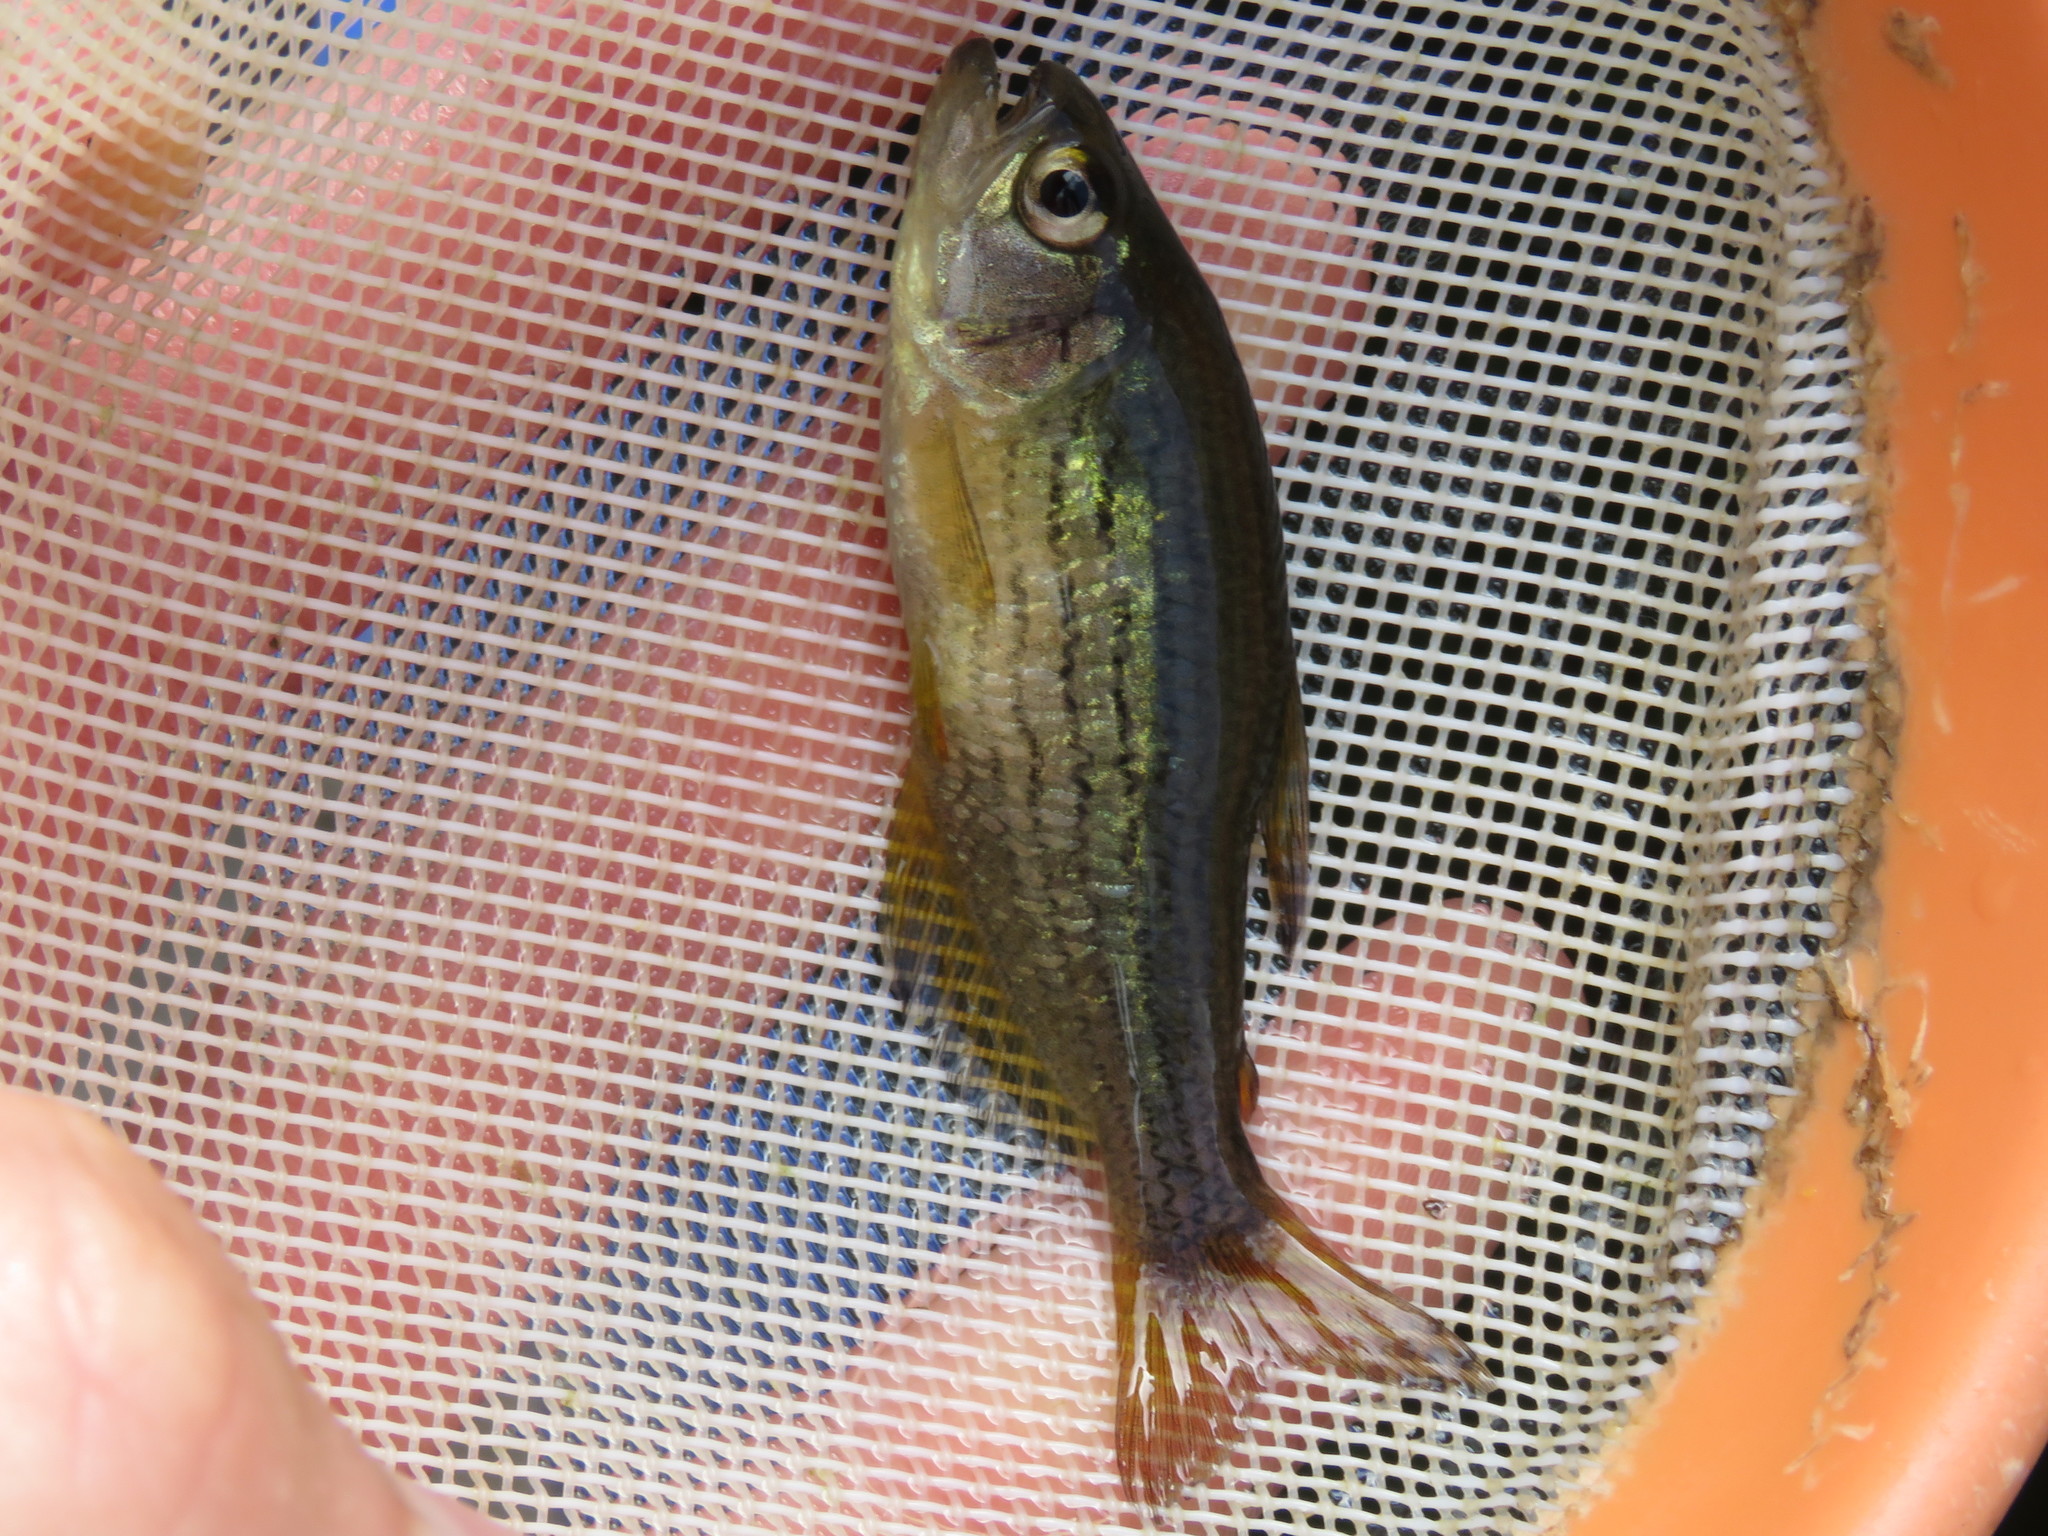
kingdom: Animalia
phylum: Chordata
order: Characiformes
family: Characidae
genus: Hollandichthys
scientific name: Hollandichthys multifasciatus
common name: Tetra
